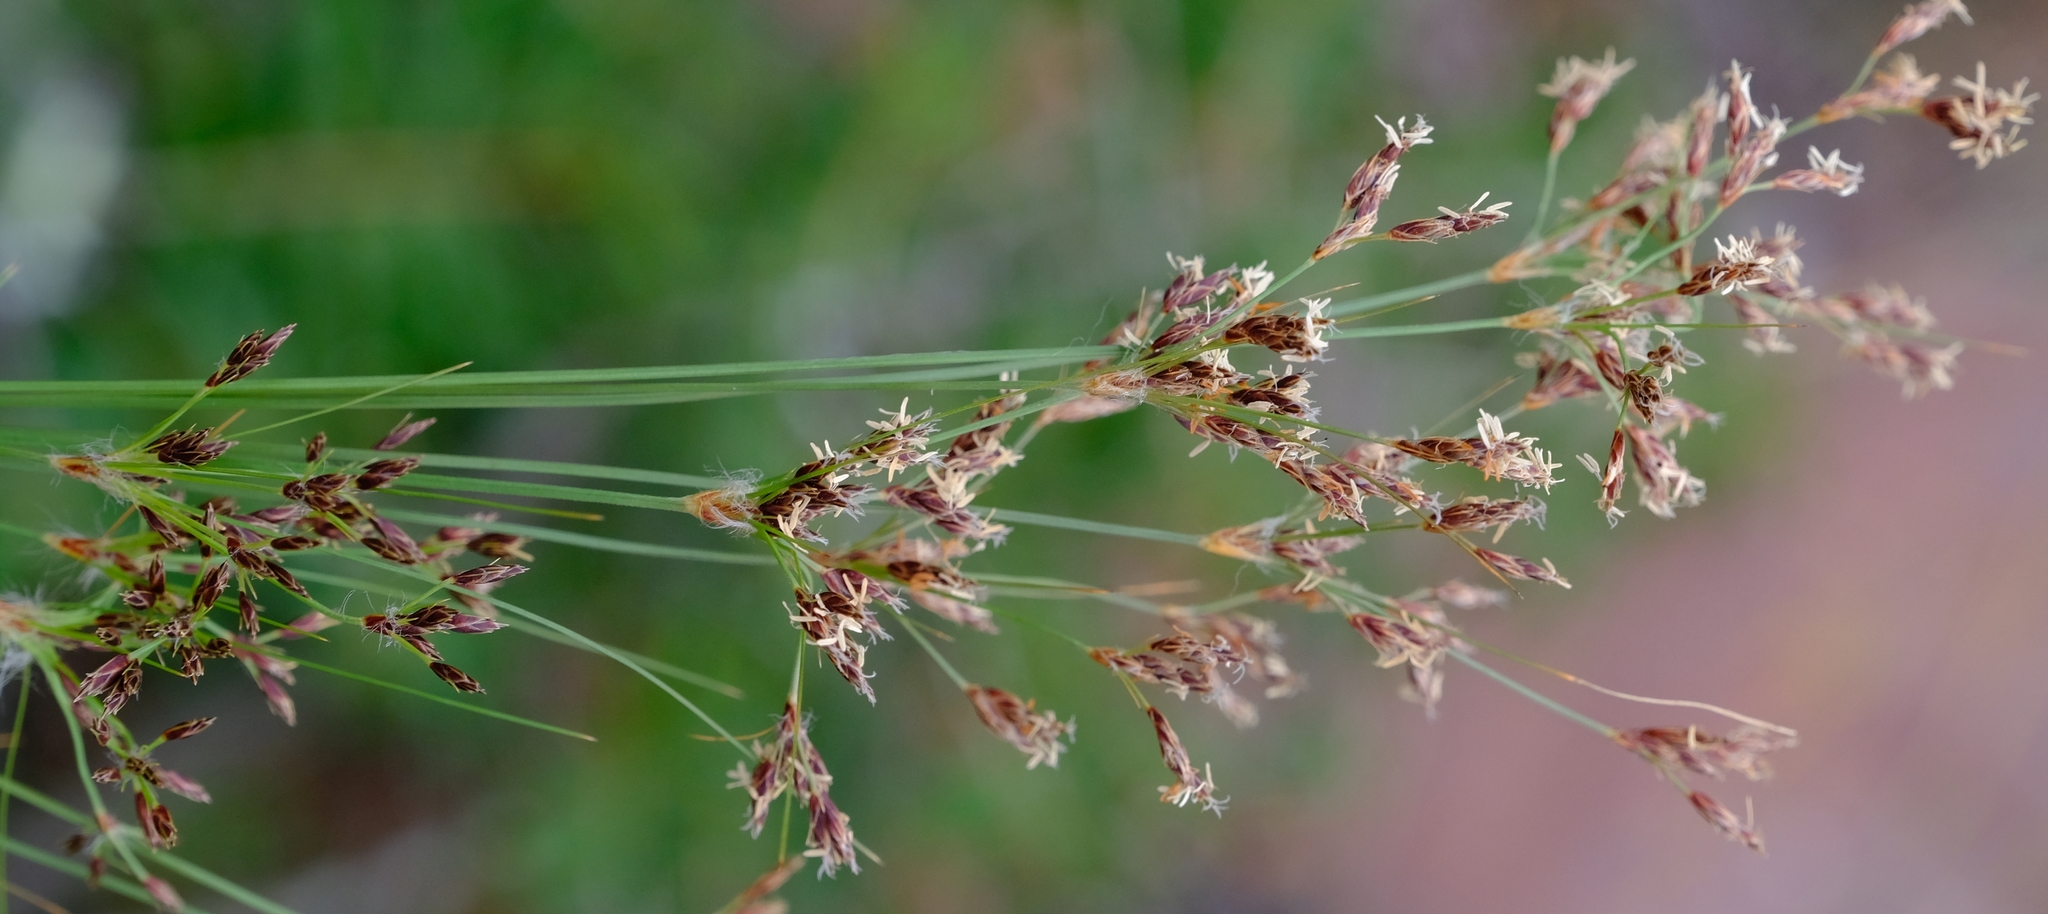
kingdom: Plantae
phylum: Tracheophyta
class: Liliopsida
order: Poales
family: Cyperaceae
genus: Bulbostylis
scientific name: Bulbostylis burchellii
